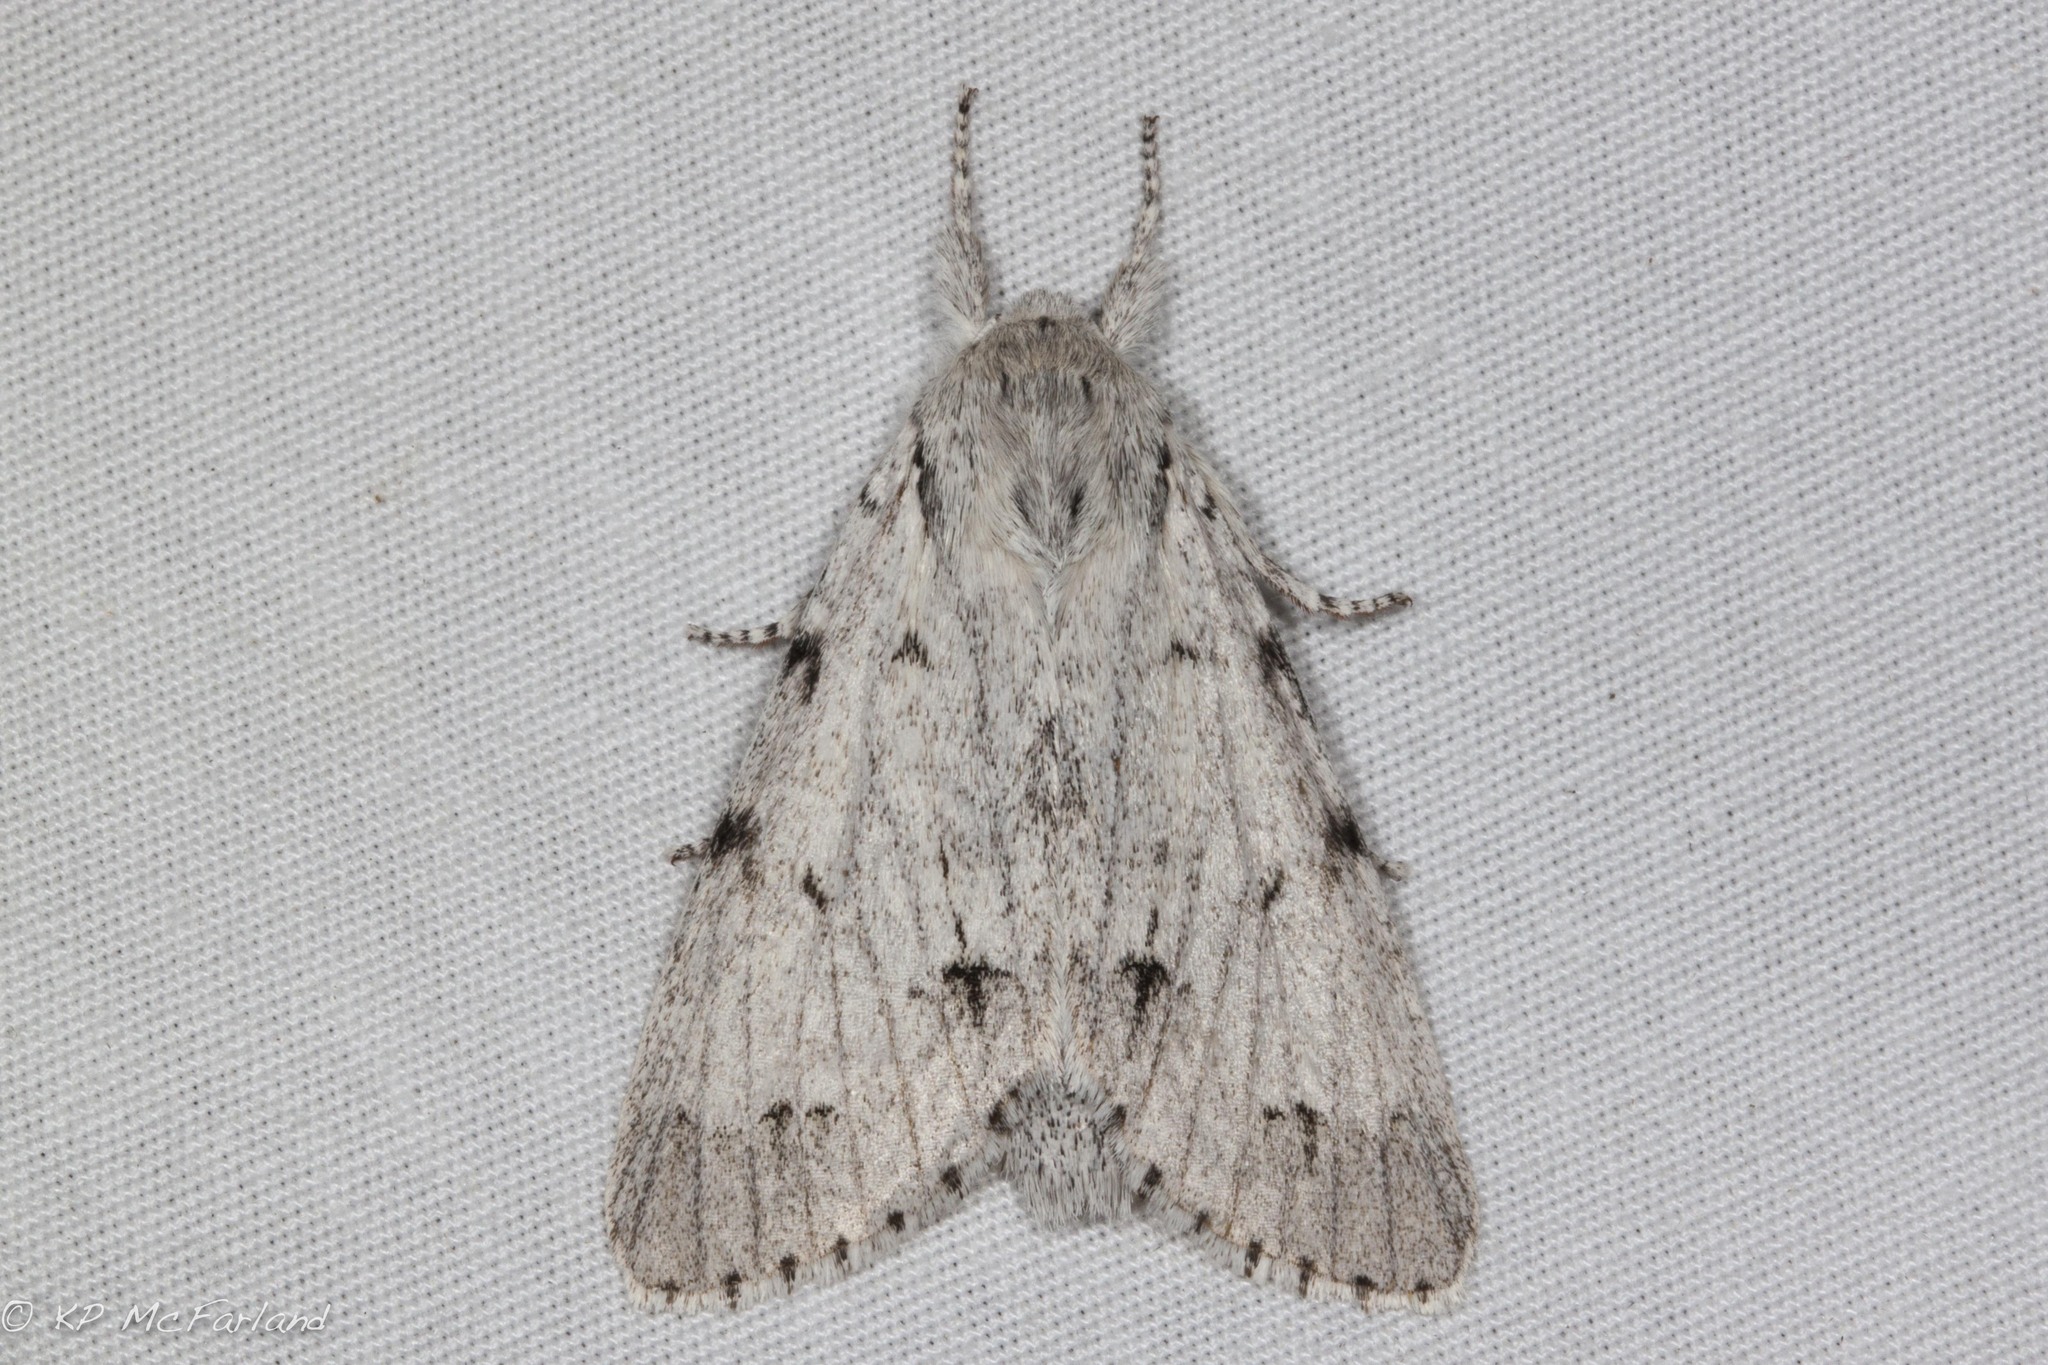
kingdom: Animalia
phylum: Arthropoda
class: Insecta
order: Lepidoptera
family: Noctuidae
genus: Acronicta
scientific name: Acronicta lepusculina
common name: Cottonwood dagger
